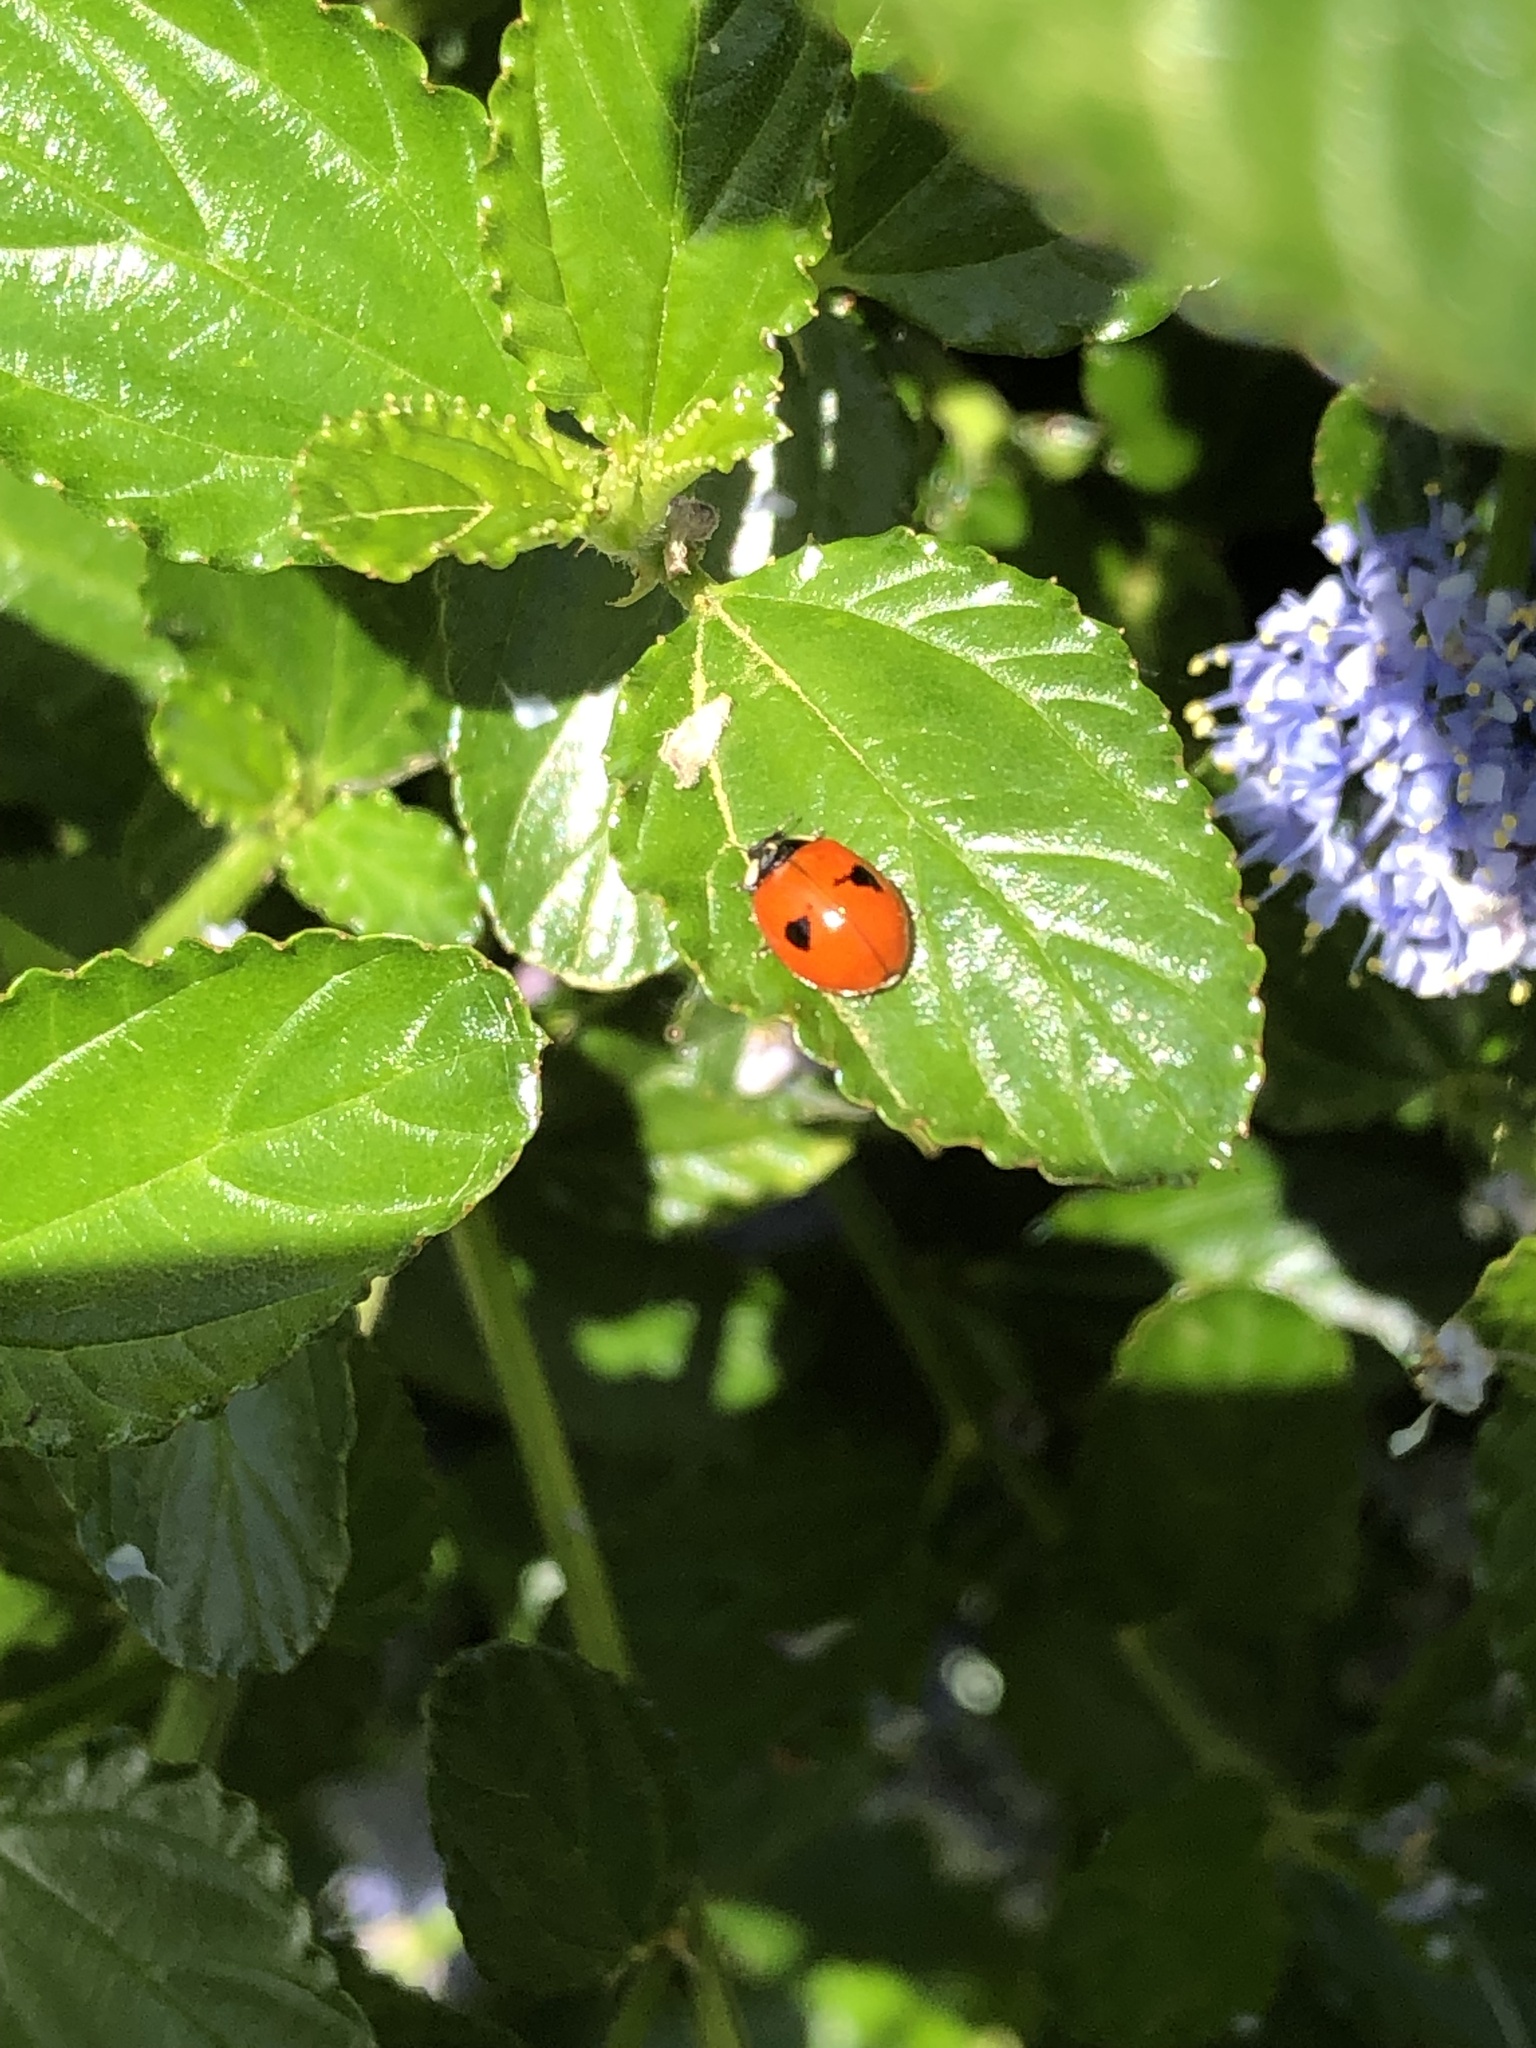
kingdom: Animalia
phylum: Arthropoda
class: Insecta
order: Coleoptera
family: Coccinellidae
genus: Adalia
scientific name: Adalia bipunctata
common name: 2-spot ladybird
